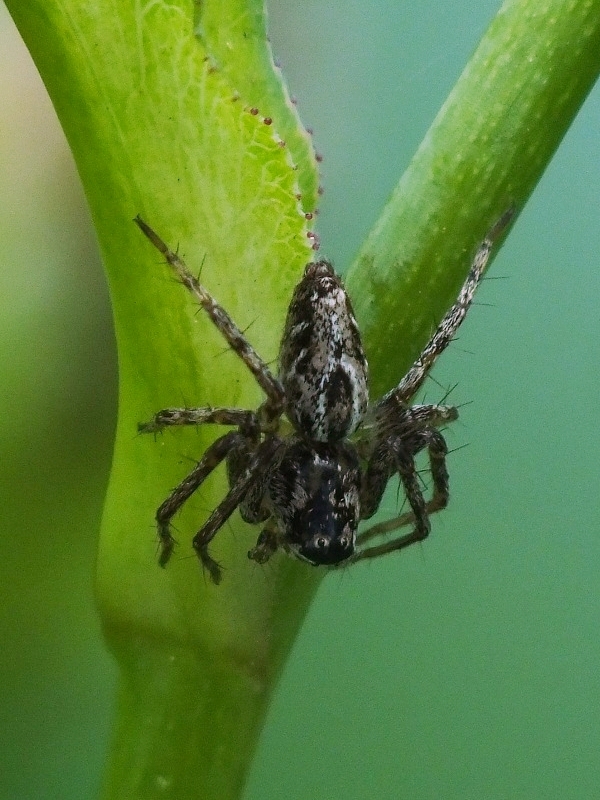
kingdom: Animalia
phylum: Arthropoda
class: Arachnida
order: Araneae
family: Oxyopidae
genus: Oxyopes
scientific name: Oxyopes heterophthalmus
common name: Lynx spider
